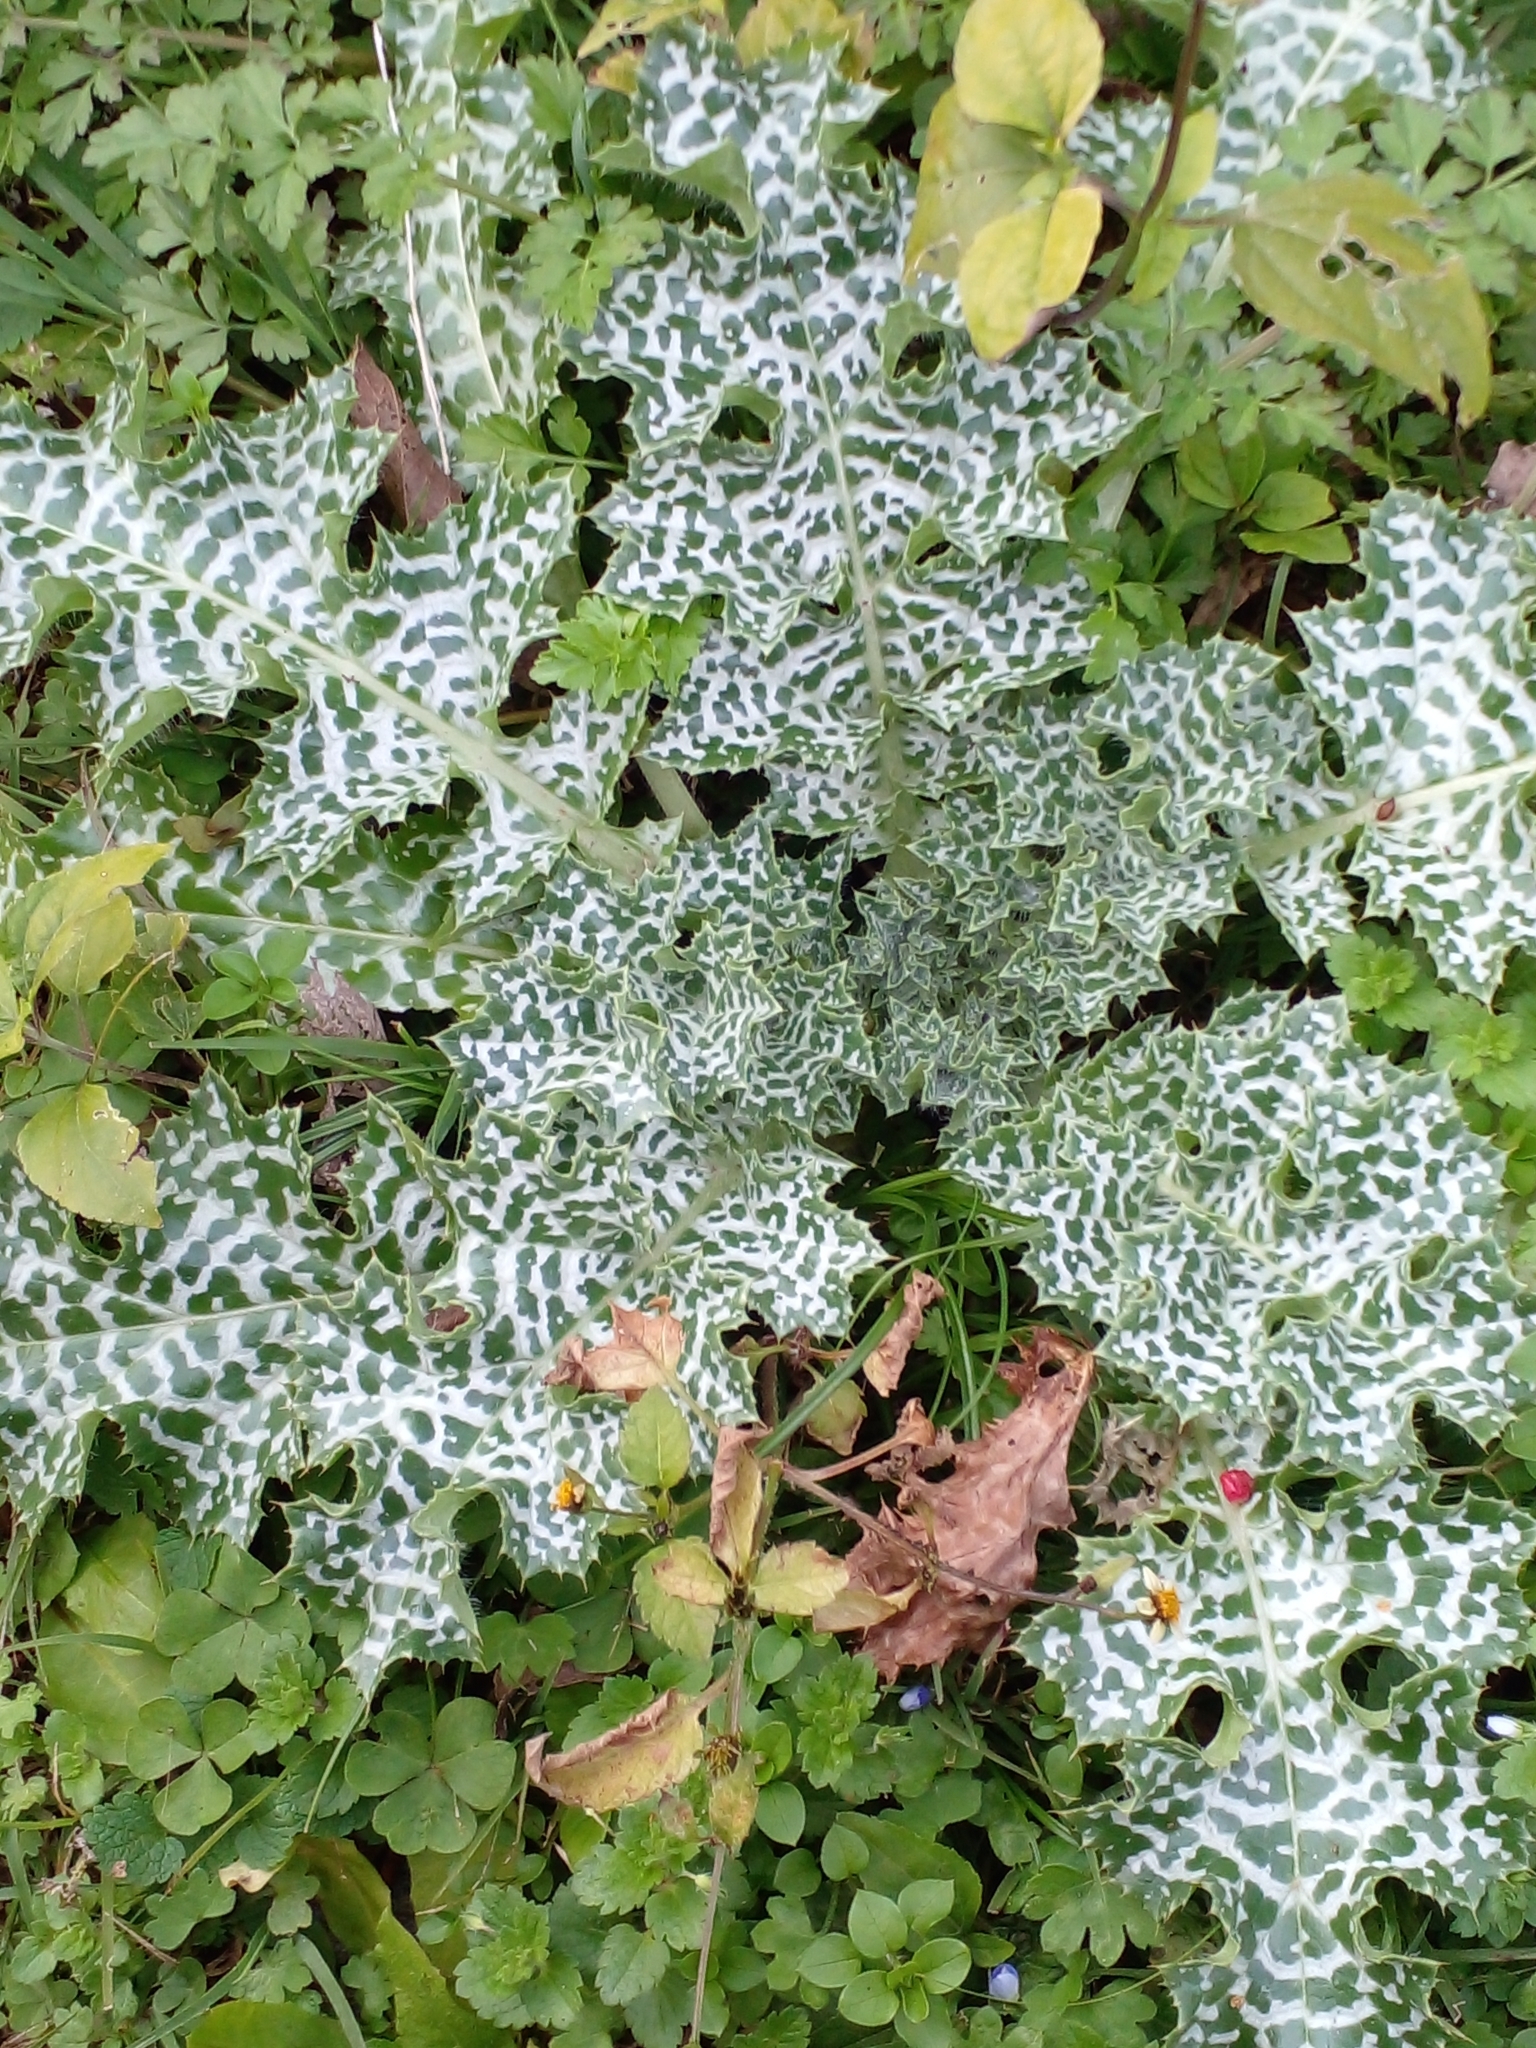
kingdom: Plantae
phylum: Tracheophyta
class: Magnoliopsida
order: Asterales
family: Asteraceae
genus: Silybum
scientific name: Silybum marianum
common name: Milk thistle
